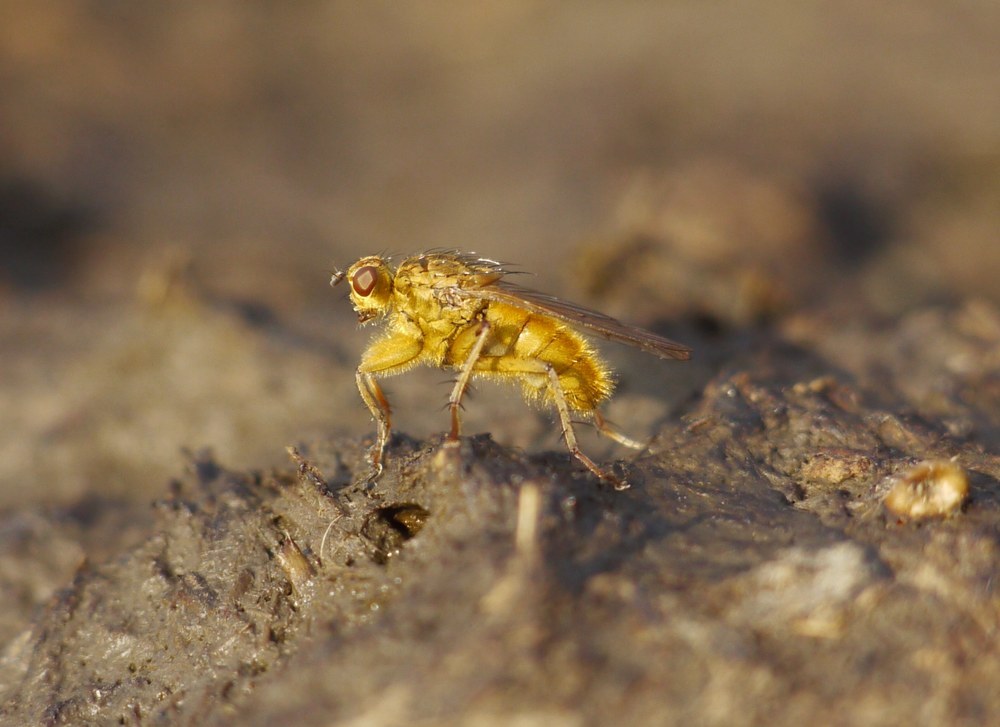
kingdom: Animalia
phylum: Arthropoda
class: Insecta
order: Diptera
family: Scathophagidae
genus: Scathophaga
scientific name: Scathophaga stercoraria
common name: Yellow dung fly
